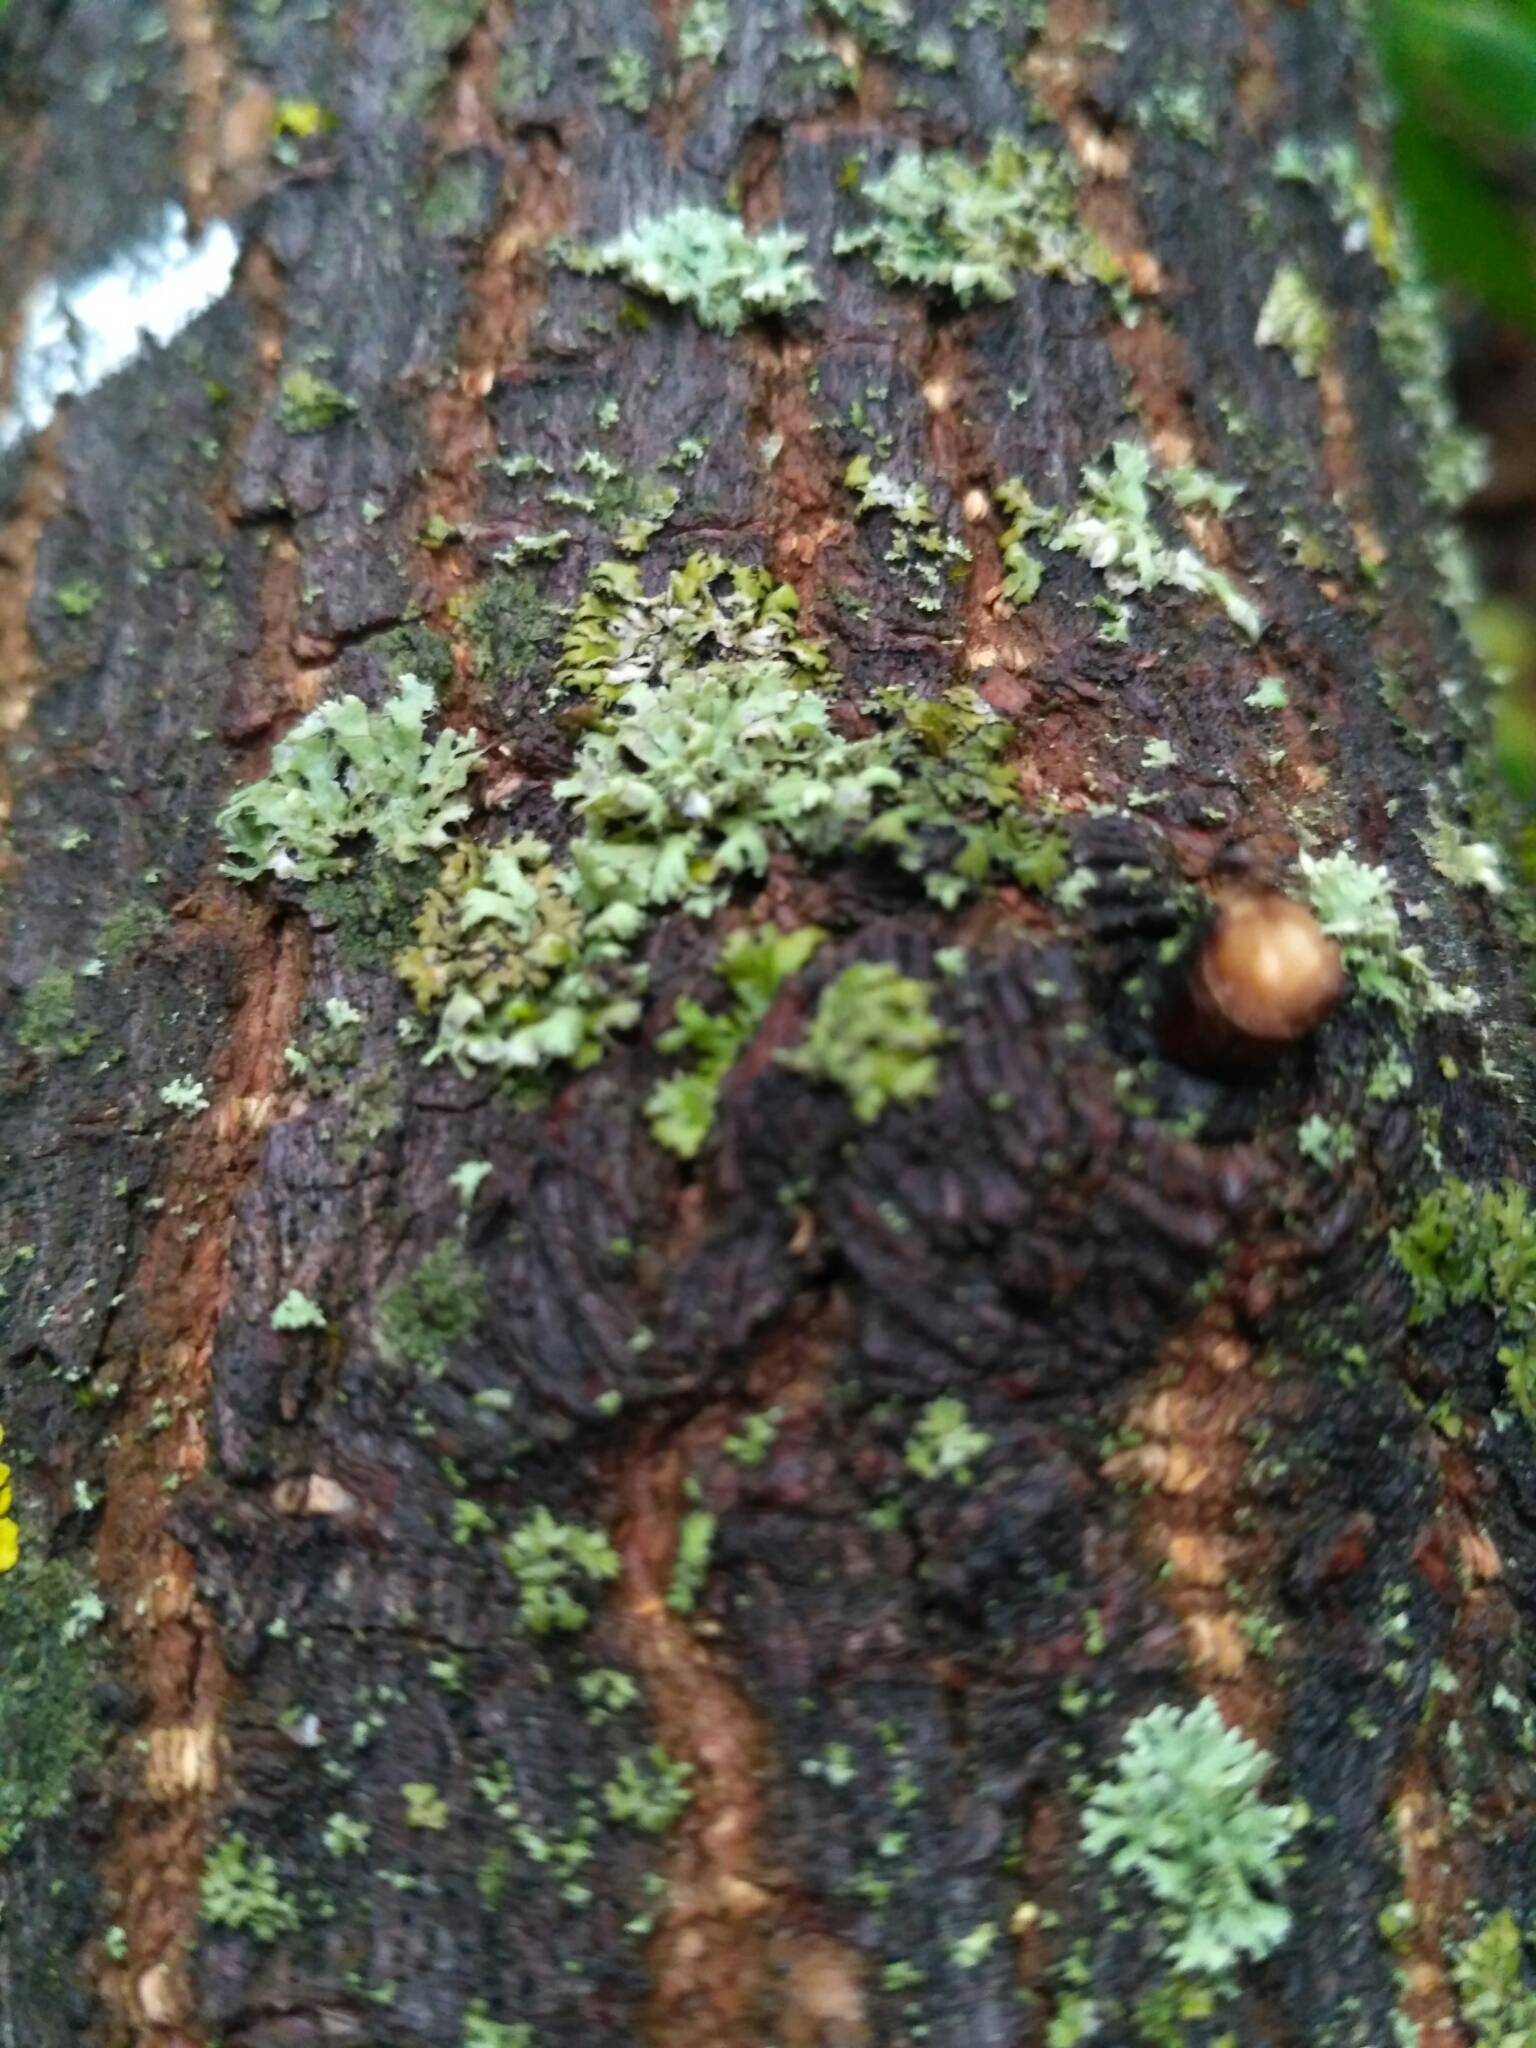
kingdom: Fungi
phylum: Ascomycota
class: Lecanoromycetes
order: Caliciales
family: Physciaceae
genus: Physcia
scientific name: Physcia adscendens
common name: Hooded rosette lichen
